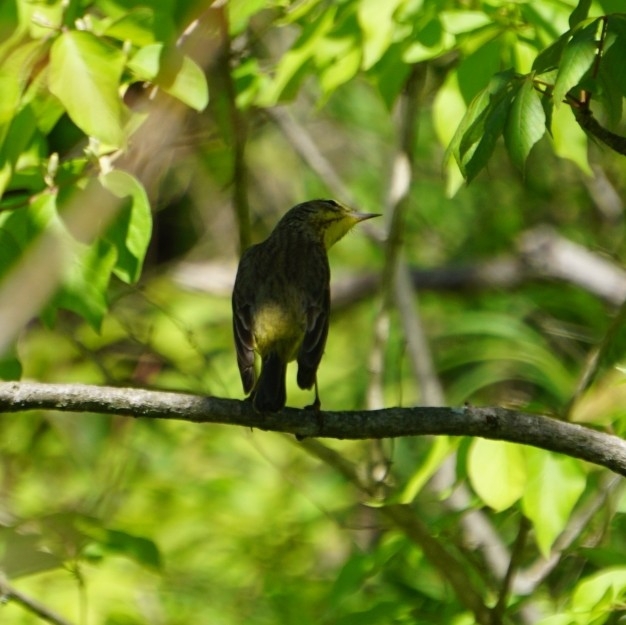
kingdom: Animalia
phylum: Chordata
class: Aves
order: Passeriformes
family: Parulidae
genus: Setophaga
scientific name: Setophaga palmarum
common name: Palm warbler
